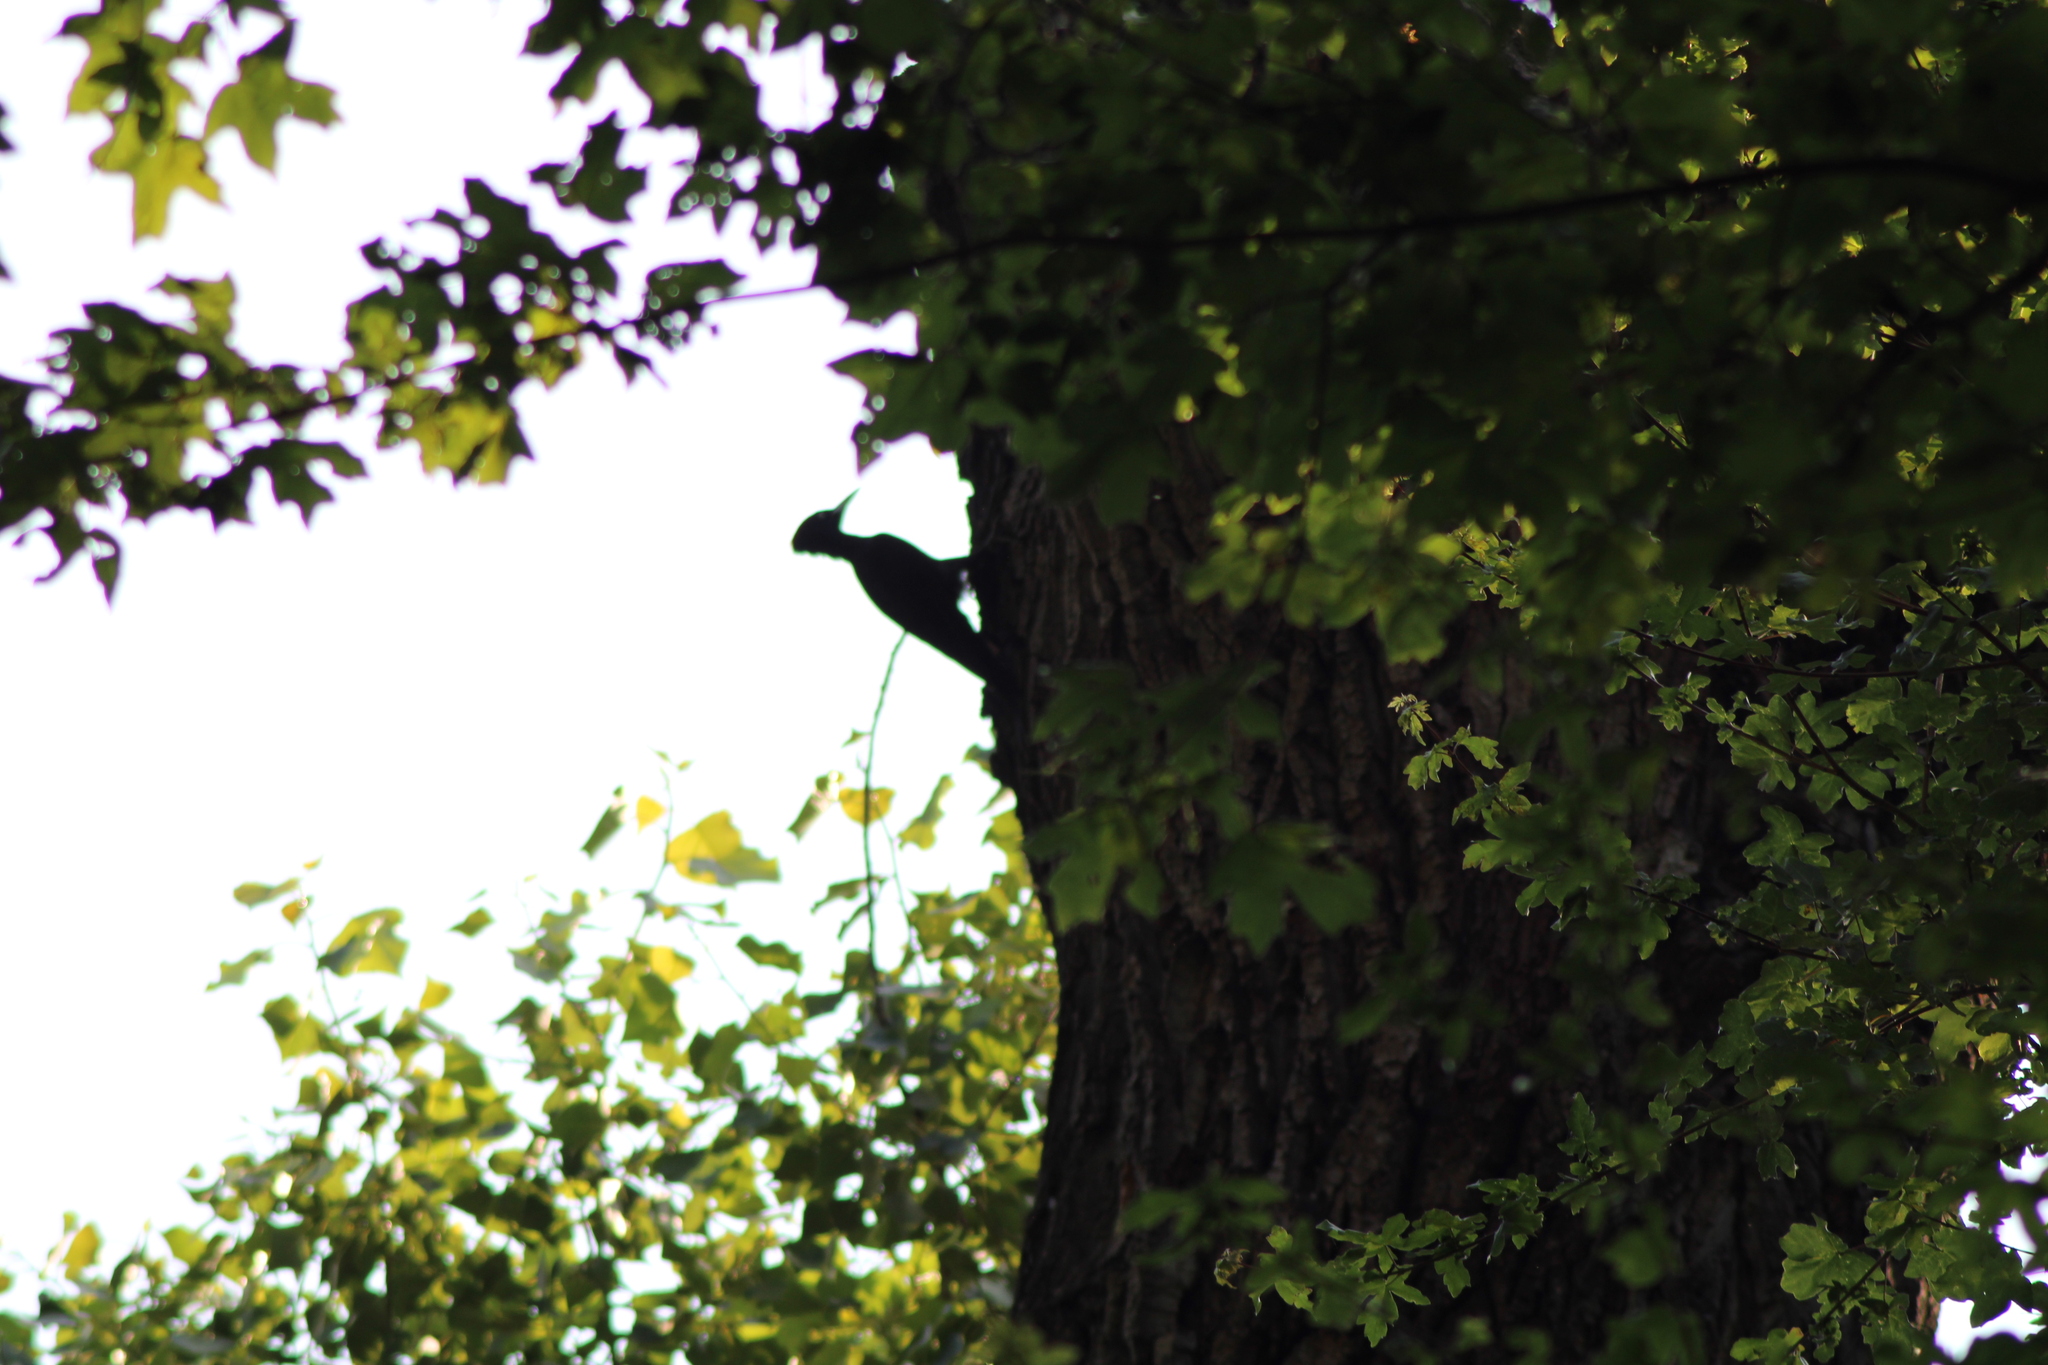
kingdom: Animalia
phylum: Chordata
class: Aves
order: Piciformes
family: Picidae
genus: Dryocopus
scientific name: Dryocopus martius
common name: Black woodpecker
